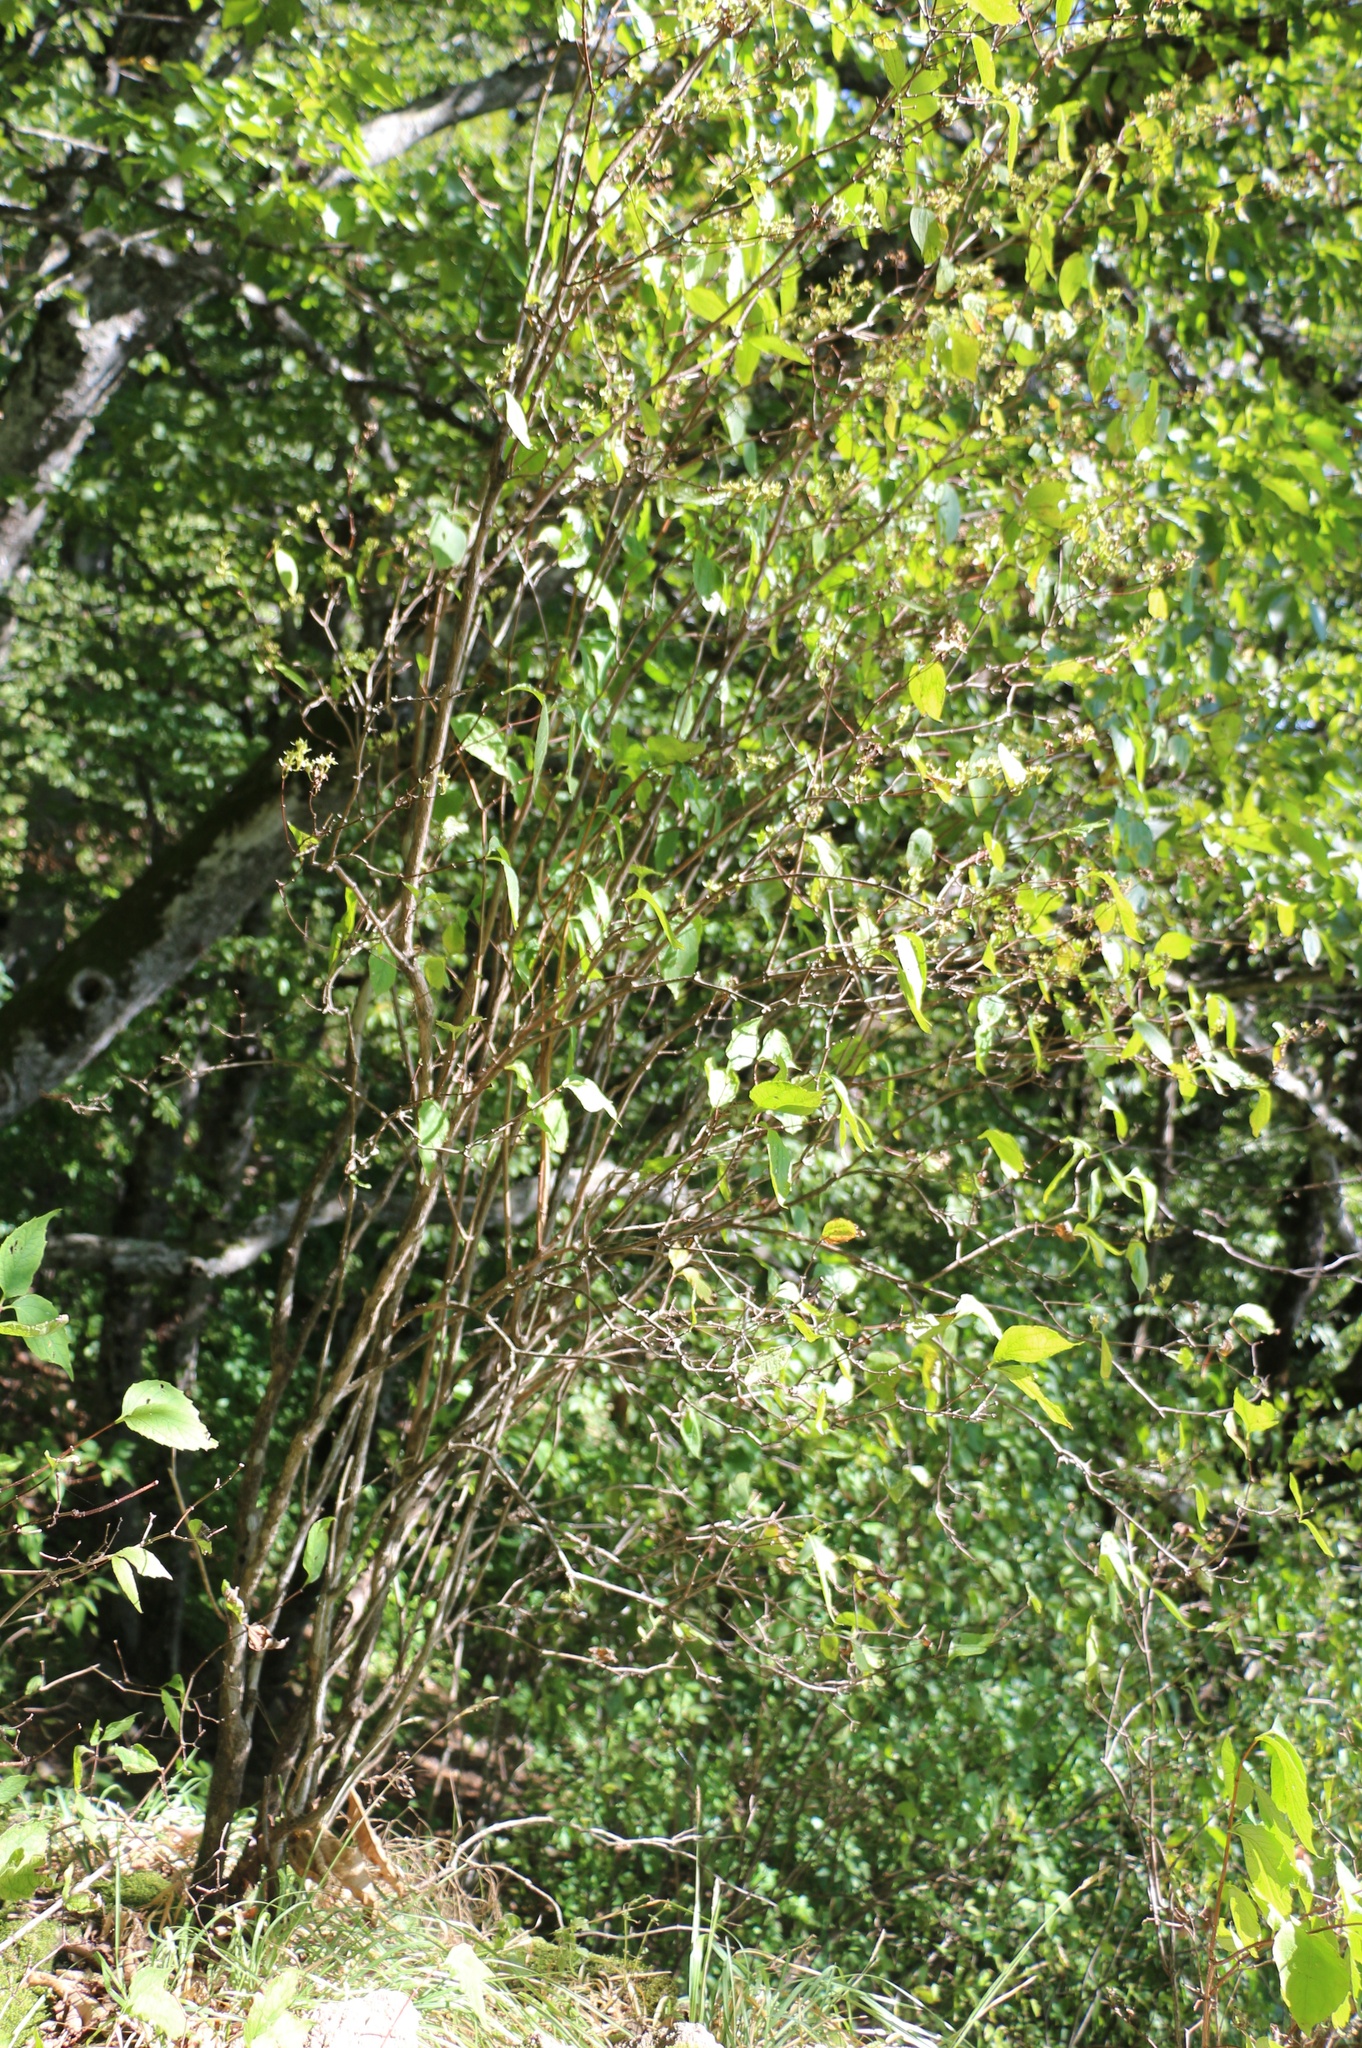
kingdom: Plantae
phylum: Tracheophyta
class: Magnoliopsida
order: Cornales
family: Hydrangeaceae
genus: Philadelphus
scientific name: Philadelphus coronarius
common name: Mock orange
